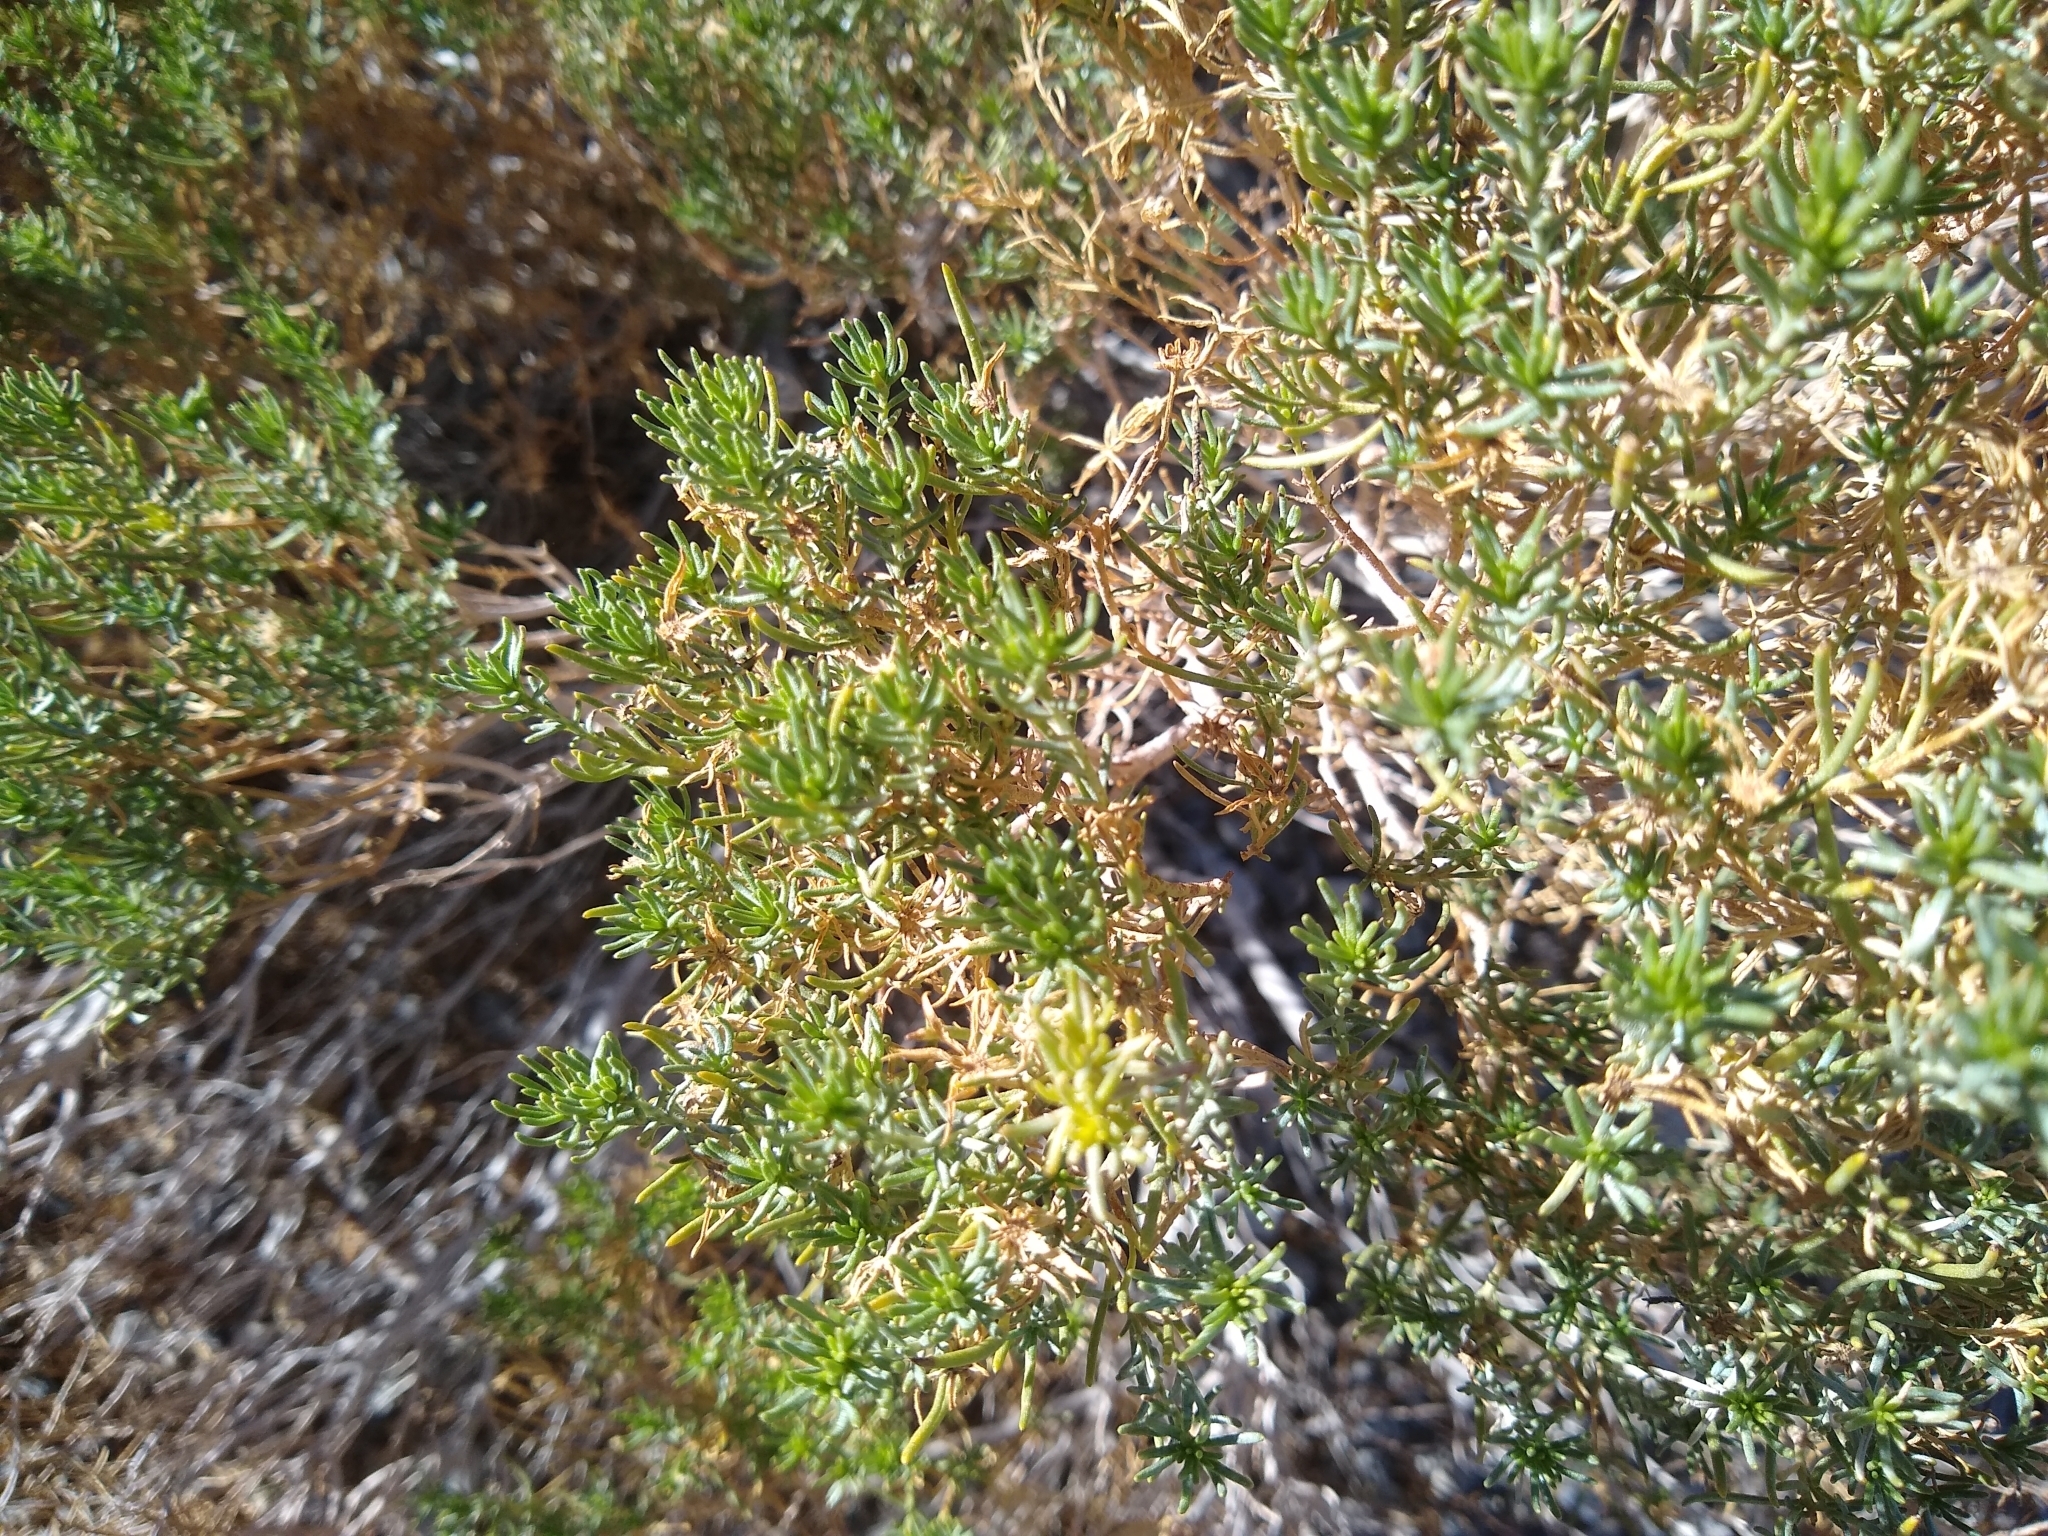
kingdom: Plantae
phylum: Tracheophyta
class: Magnoliopsida
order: Asterales
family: Asteraceae
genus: Peucephyllum
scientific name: Peucephyllum schottii
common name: Pygmy-cedar
